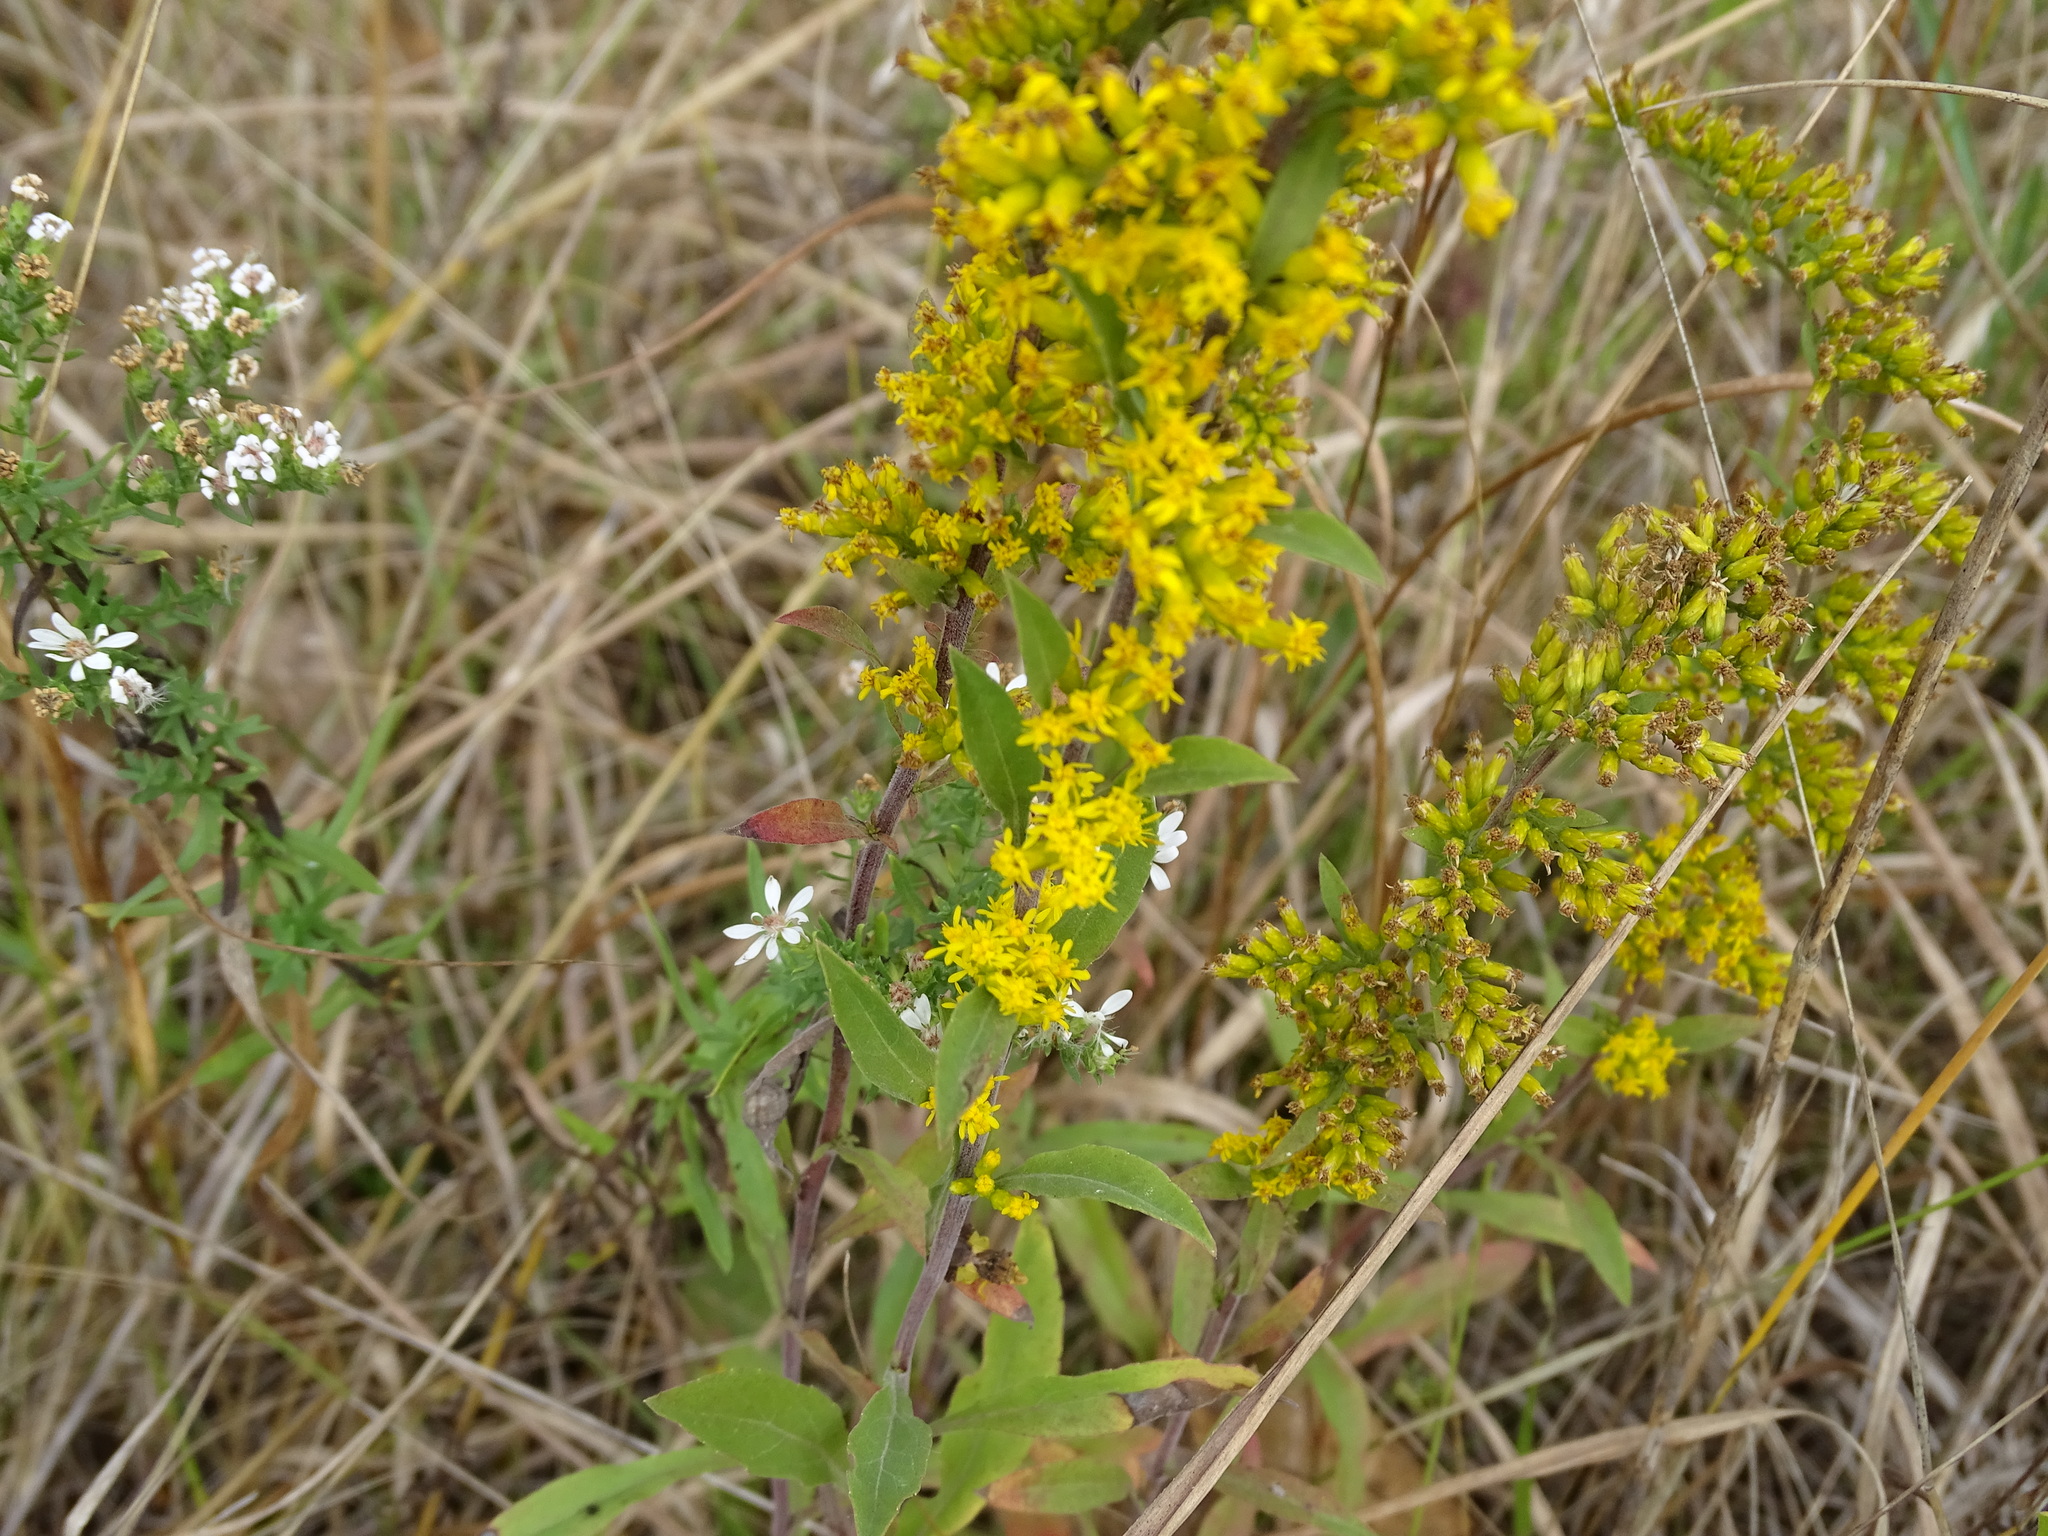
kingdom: Plantae
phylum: Tracheophyta
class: Magnoliopsida
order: Asterales
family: Asteraceae
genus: Solidago
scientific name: Solidago nemoralis
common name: Grey goldenrod
